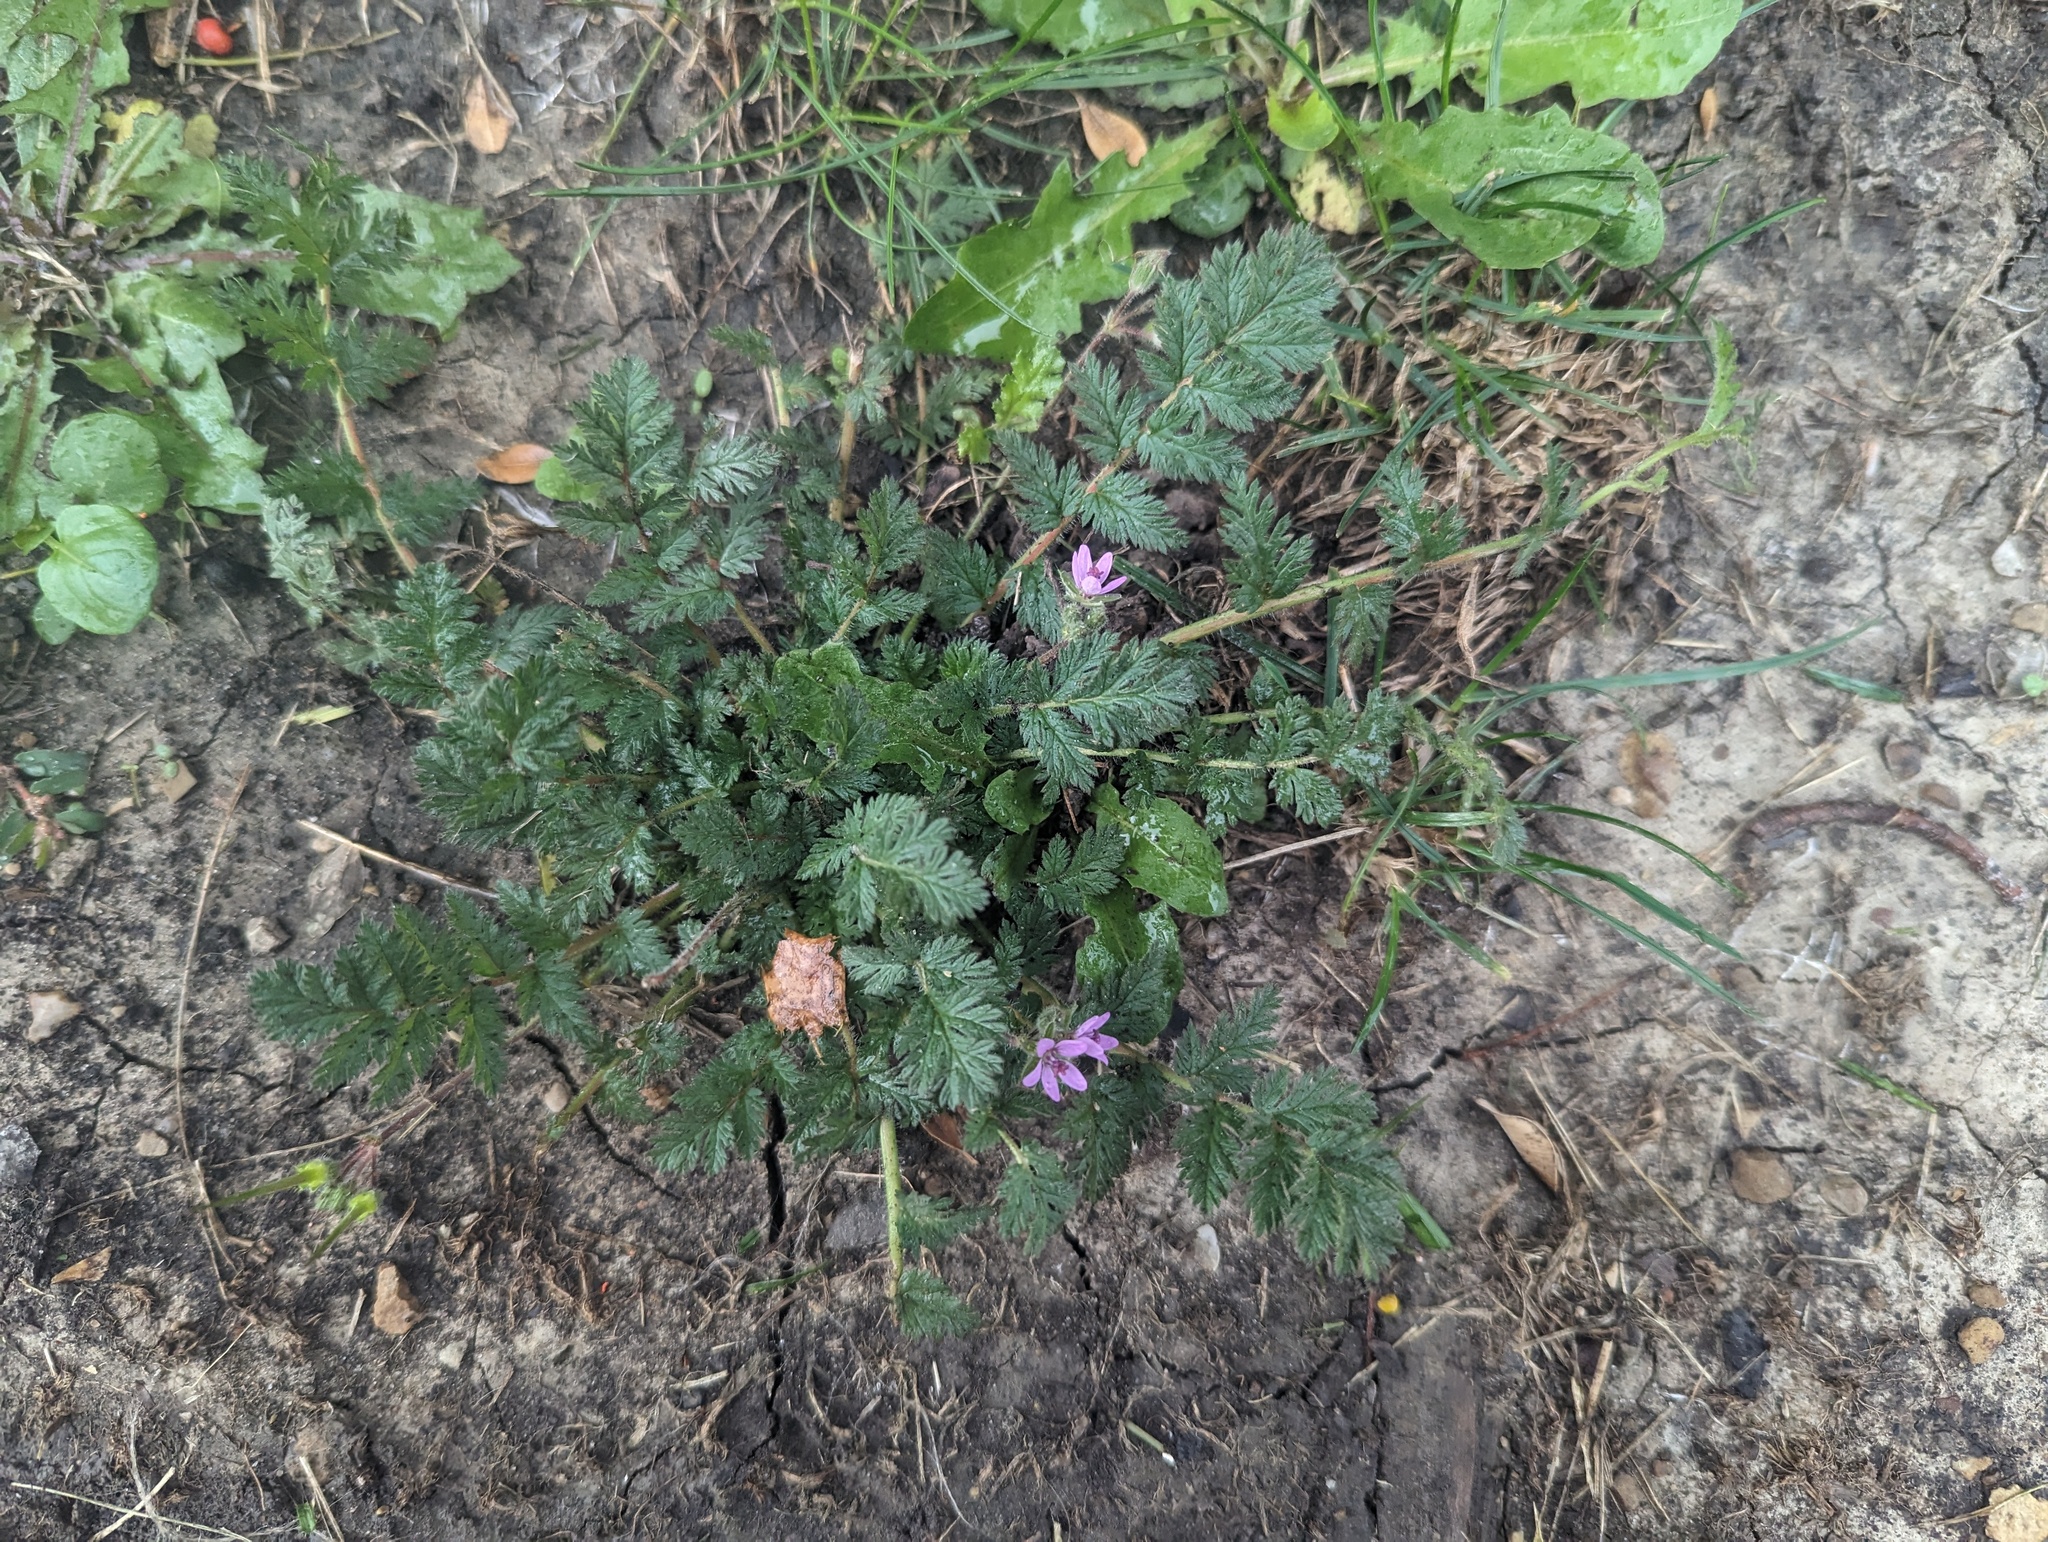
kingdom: Plantae
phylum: Tracheophyta
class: Magnoliopsida
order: Geraniales
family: Geraniaceae
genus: Erodium
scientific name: Erodium cicutarium
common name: Common stork's-bill
